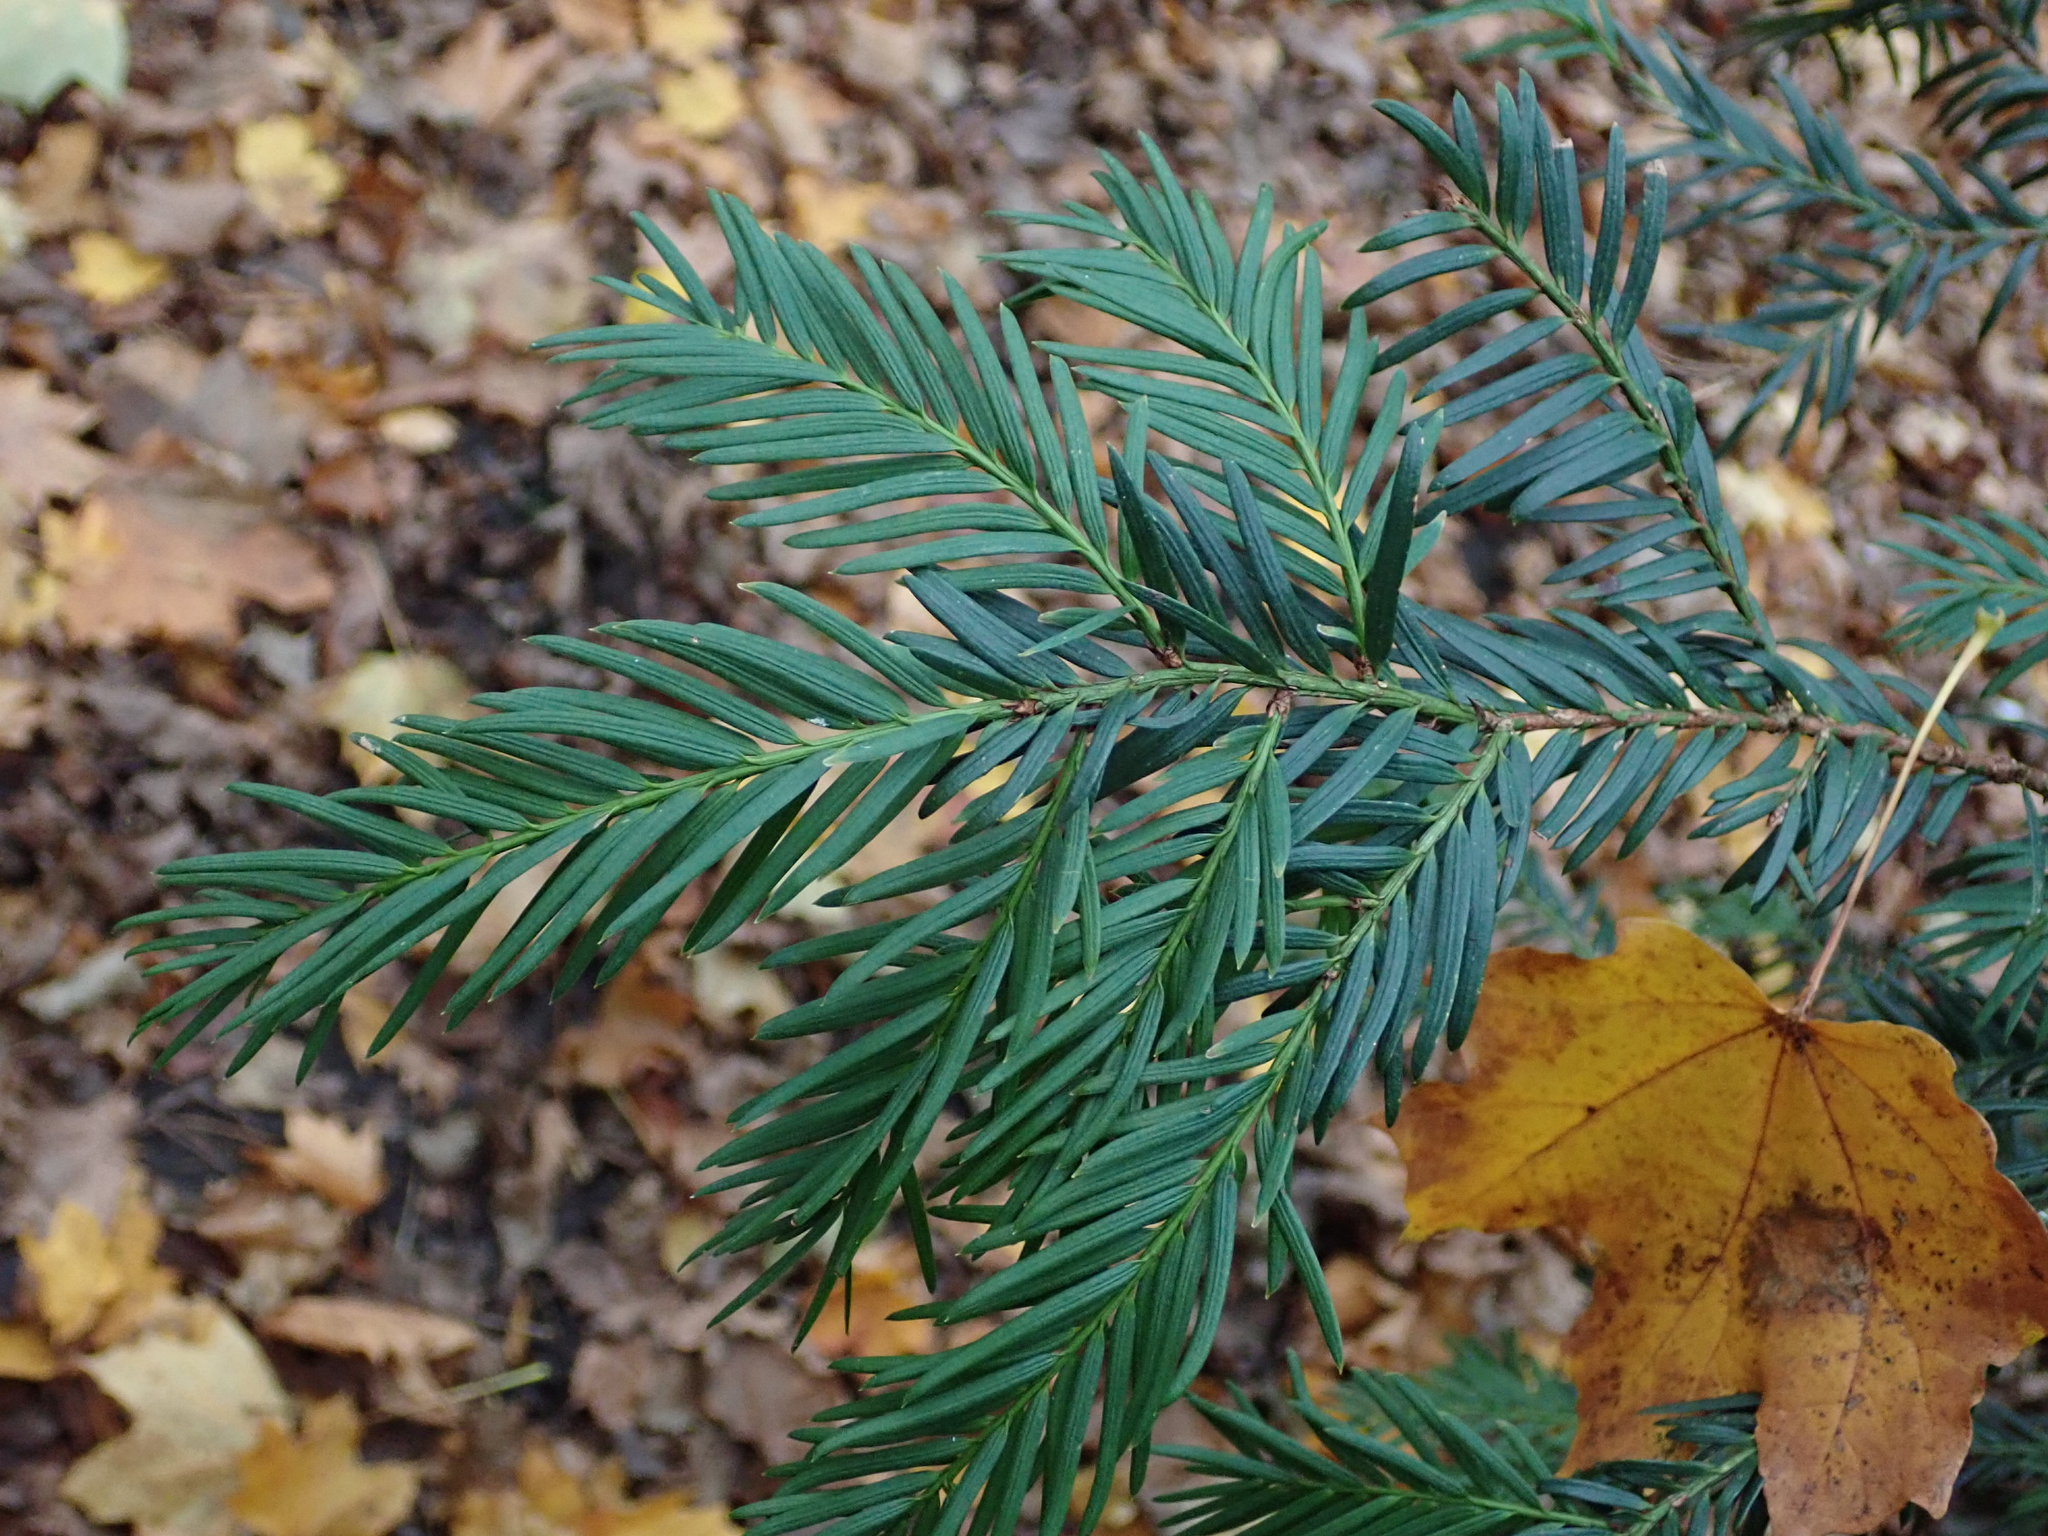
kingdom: Plantae
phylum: Tracheophyta
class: Pinopsida
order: Pinales
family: Taxaceae
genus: Taxus
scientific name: Taxus baccata
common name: Yew
